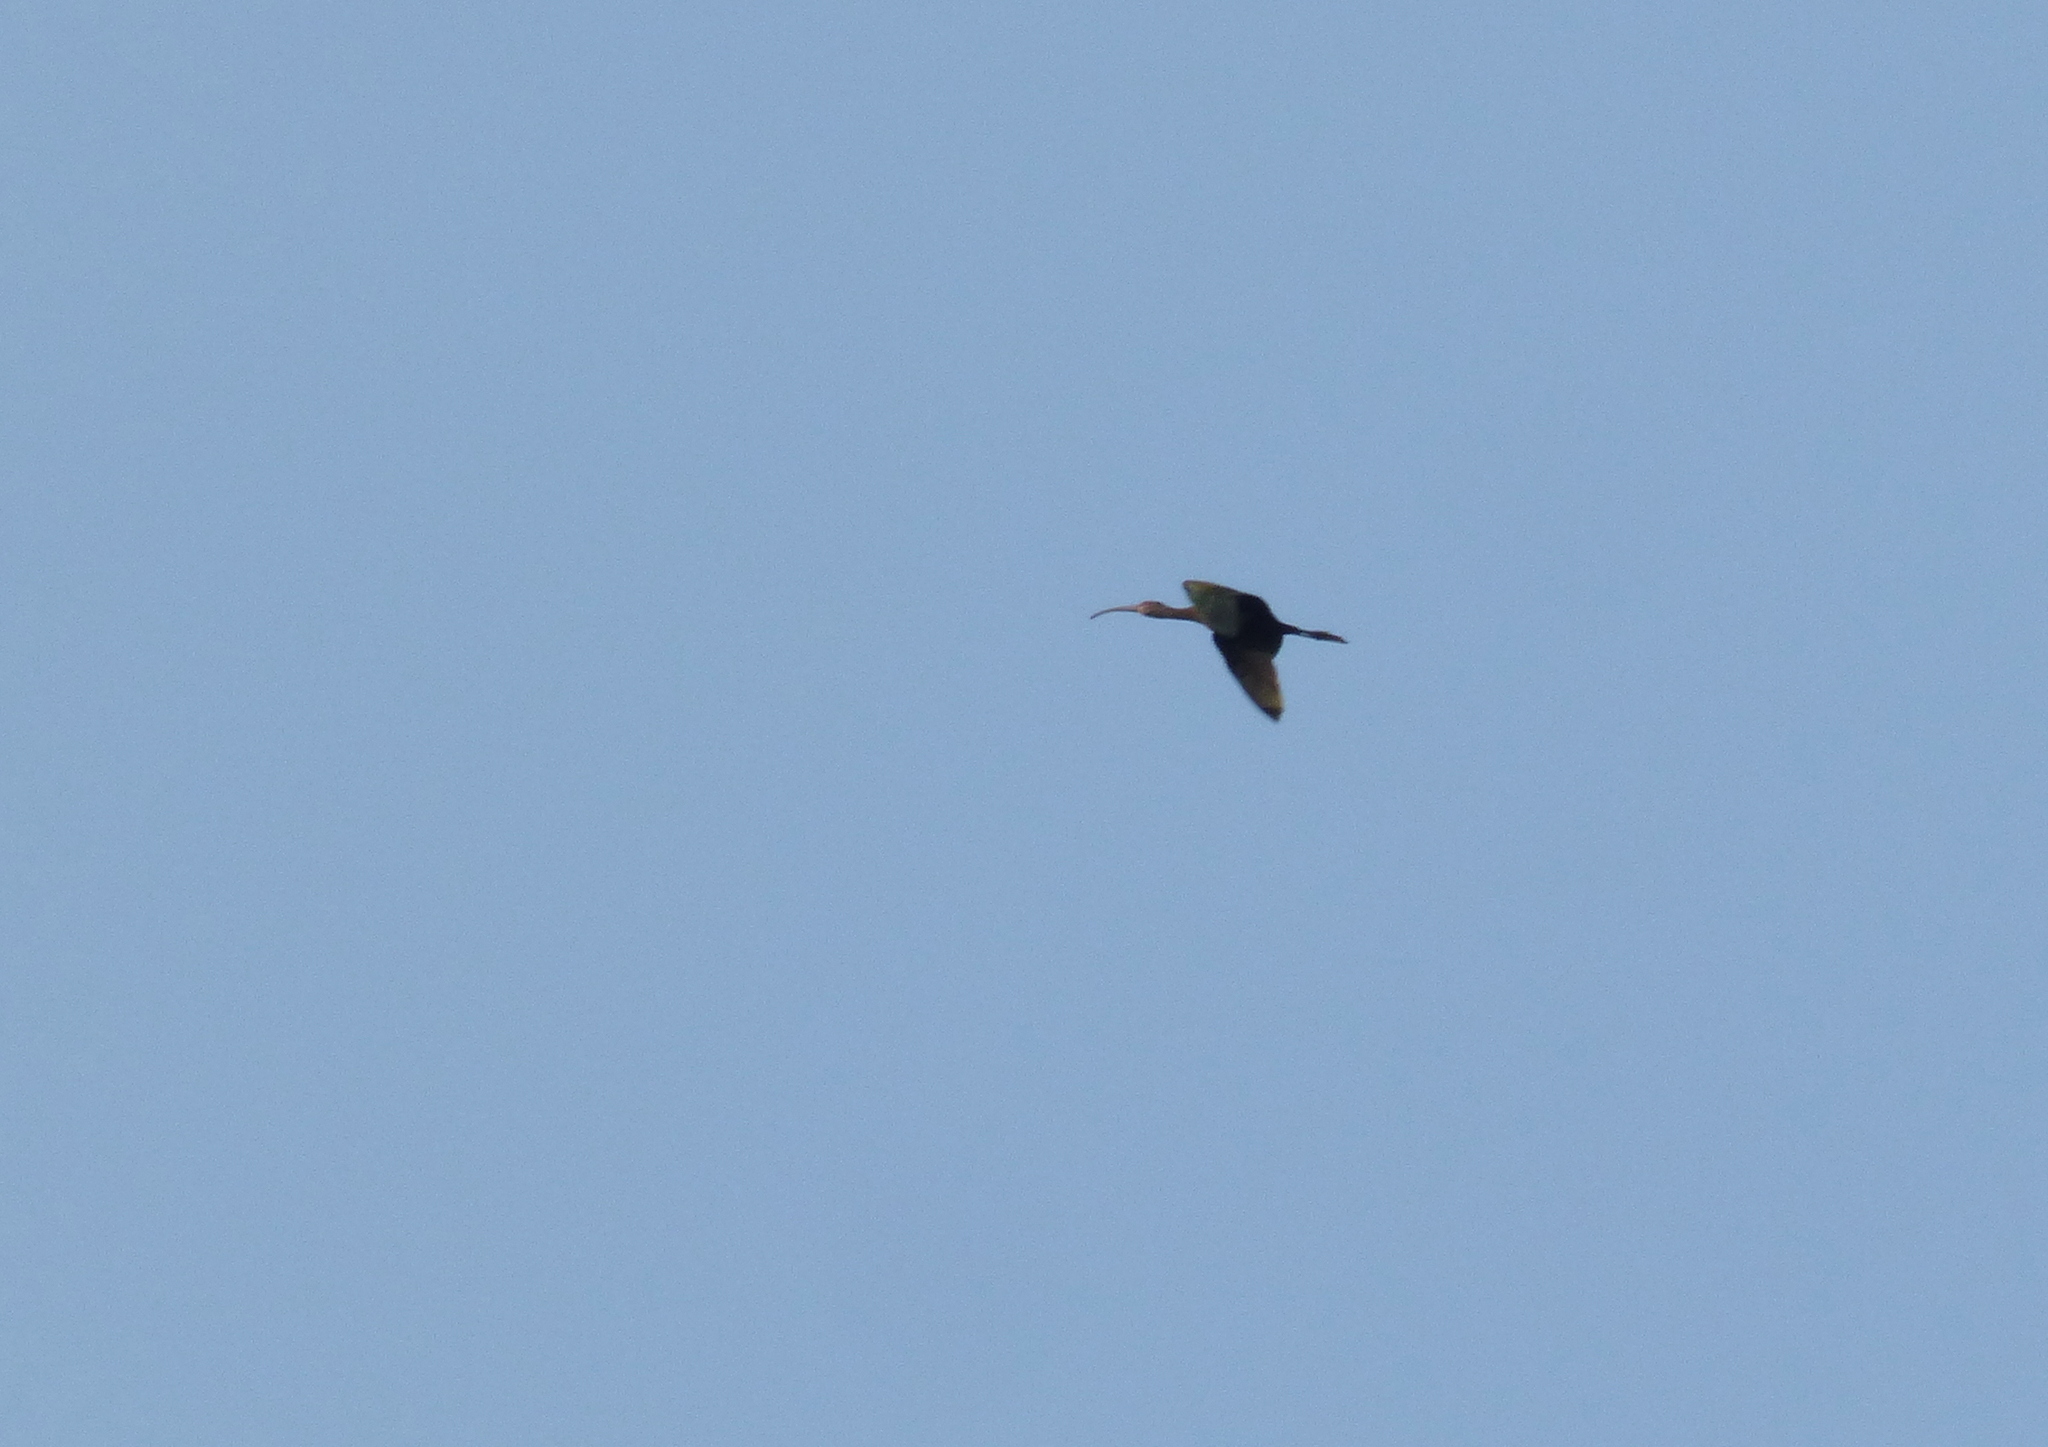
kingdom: Animalia
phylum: Chordata
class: Aves
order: Pelecaniformes
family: Threskiornithidae
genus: Plegadis
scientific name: Plegadis chihi
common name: White-faced ibis
